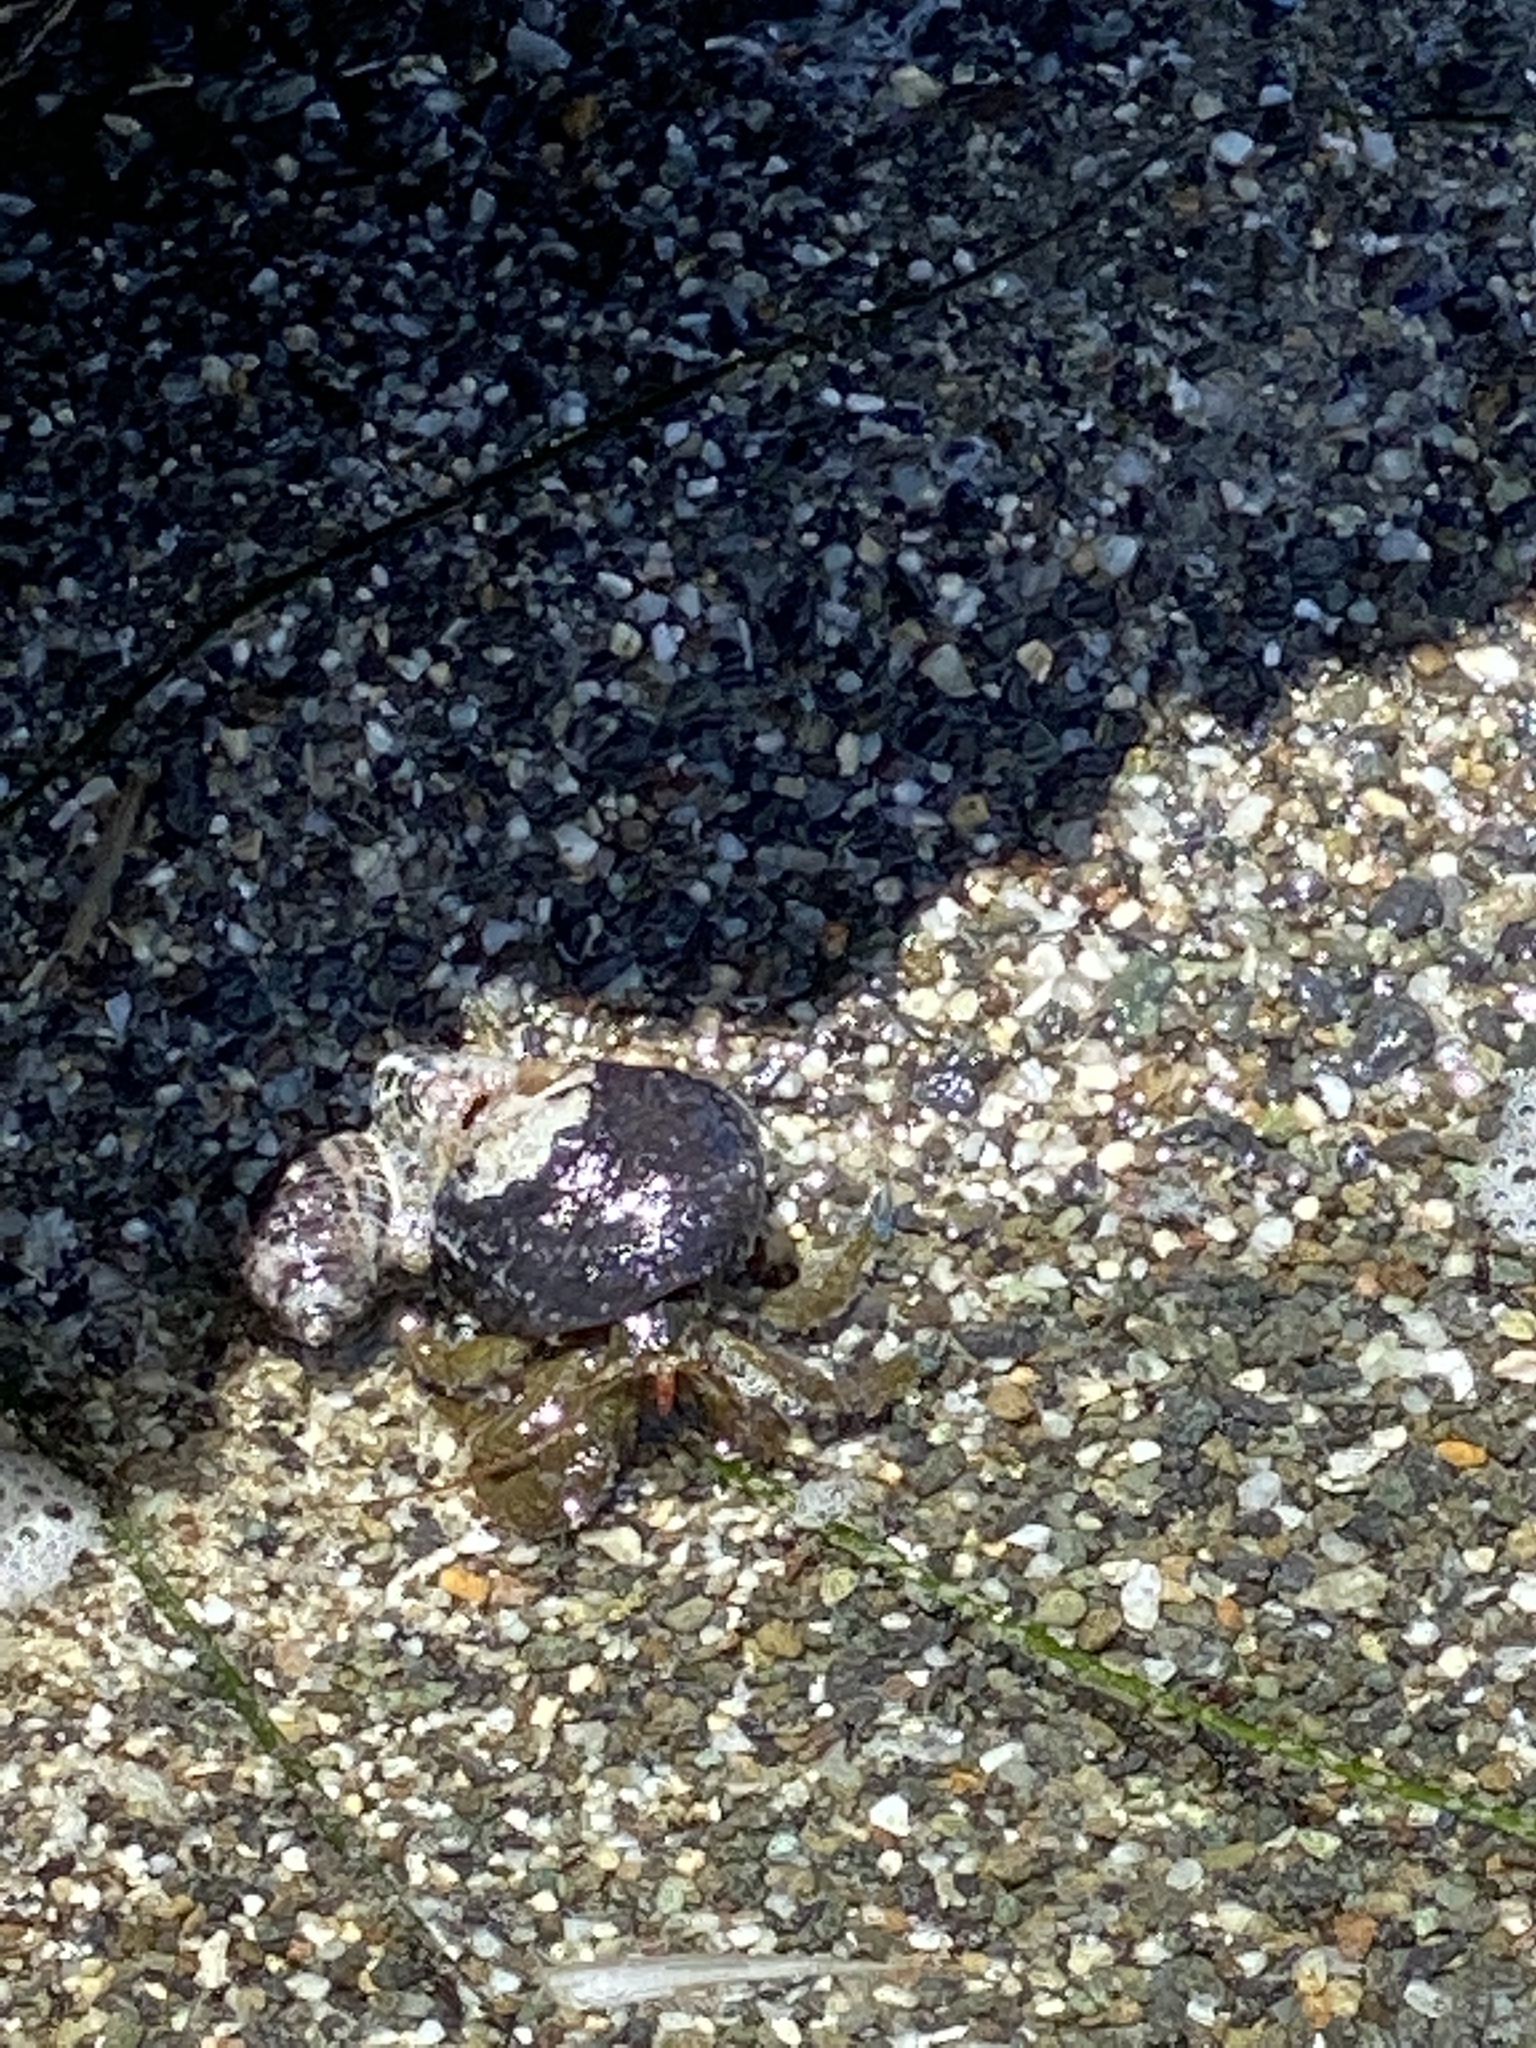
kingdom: Animalia
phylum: Arthropoda
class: Malacostraca
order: Decapoda
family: Paguridae
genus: Pagurus
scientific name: Pagurus samuelis
